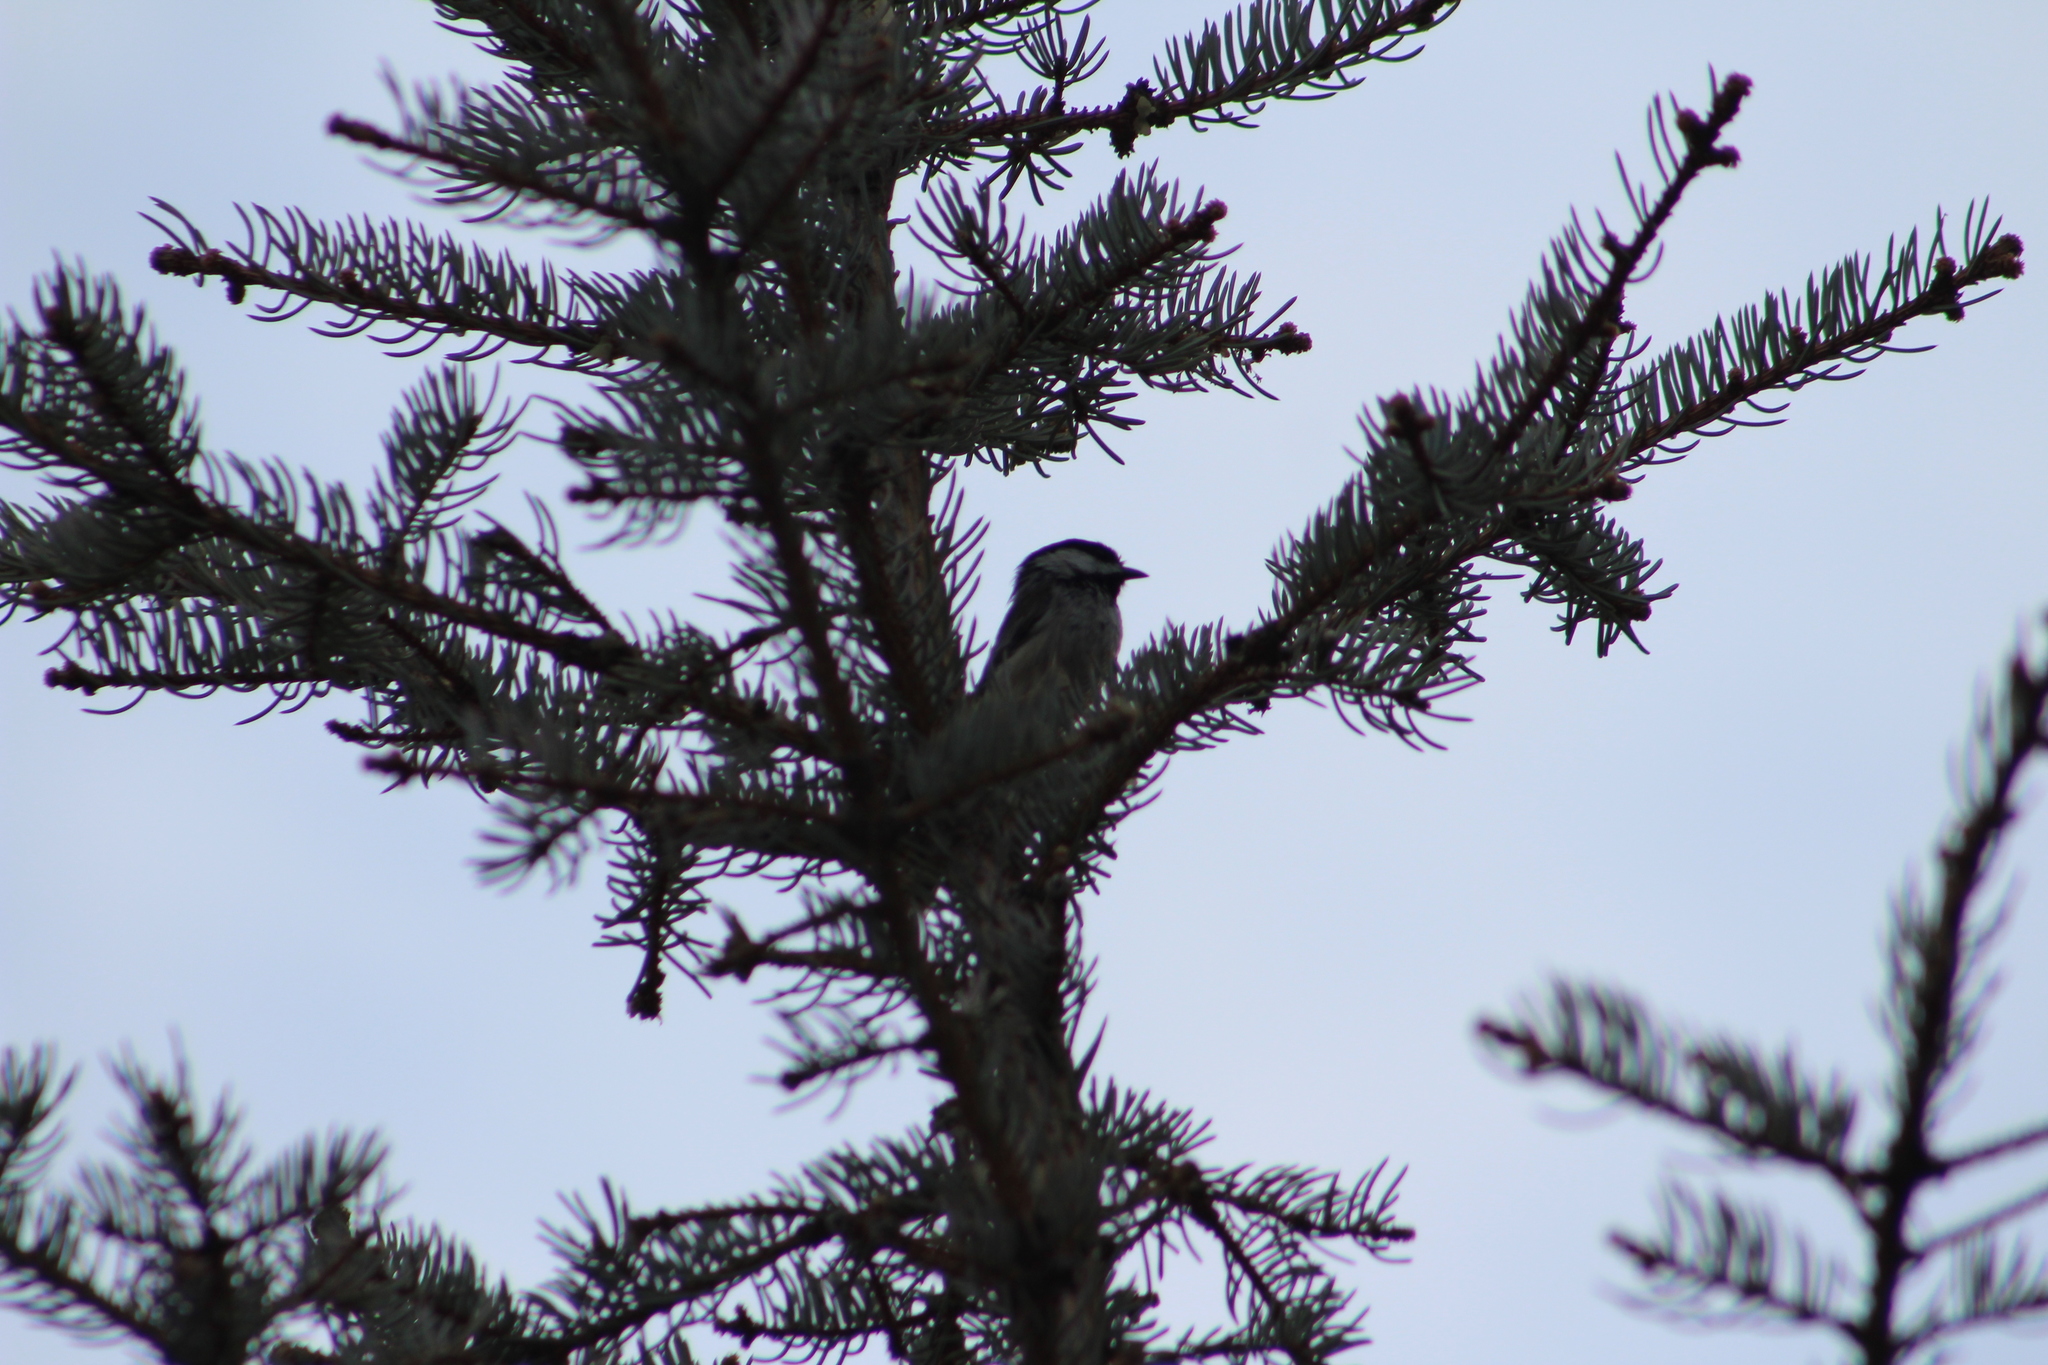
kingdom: Animalia
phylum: Chordata
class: Aves
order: Passeriformes
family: Paridae
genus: Poecile
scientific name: Poecile atricapillus
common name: Black-capped chickadee
